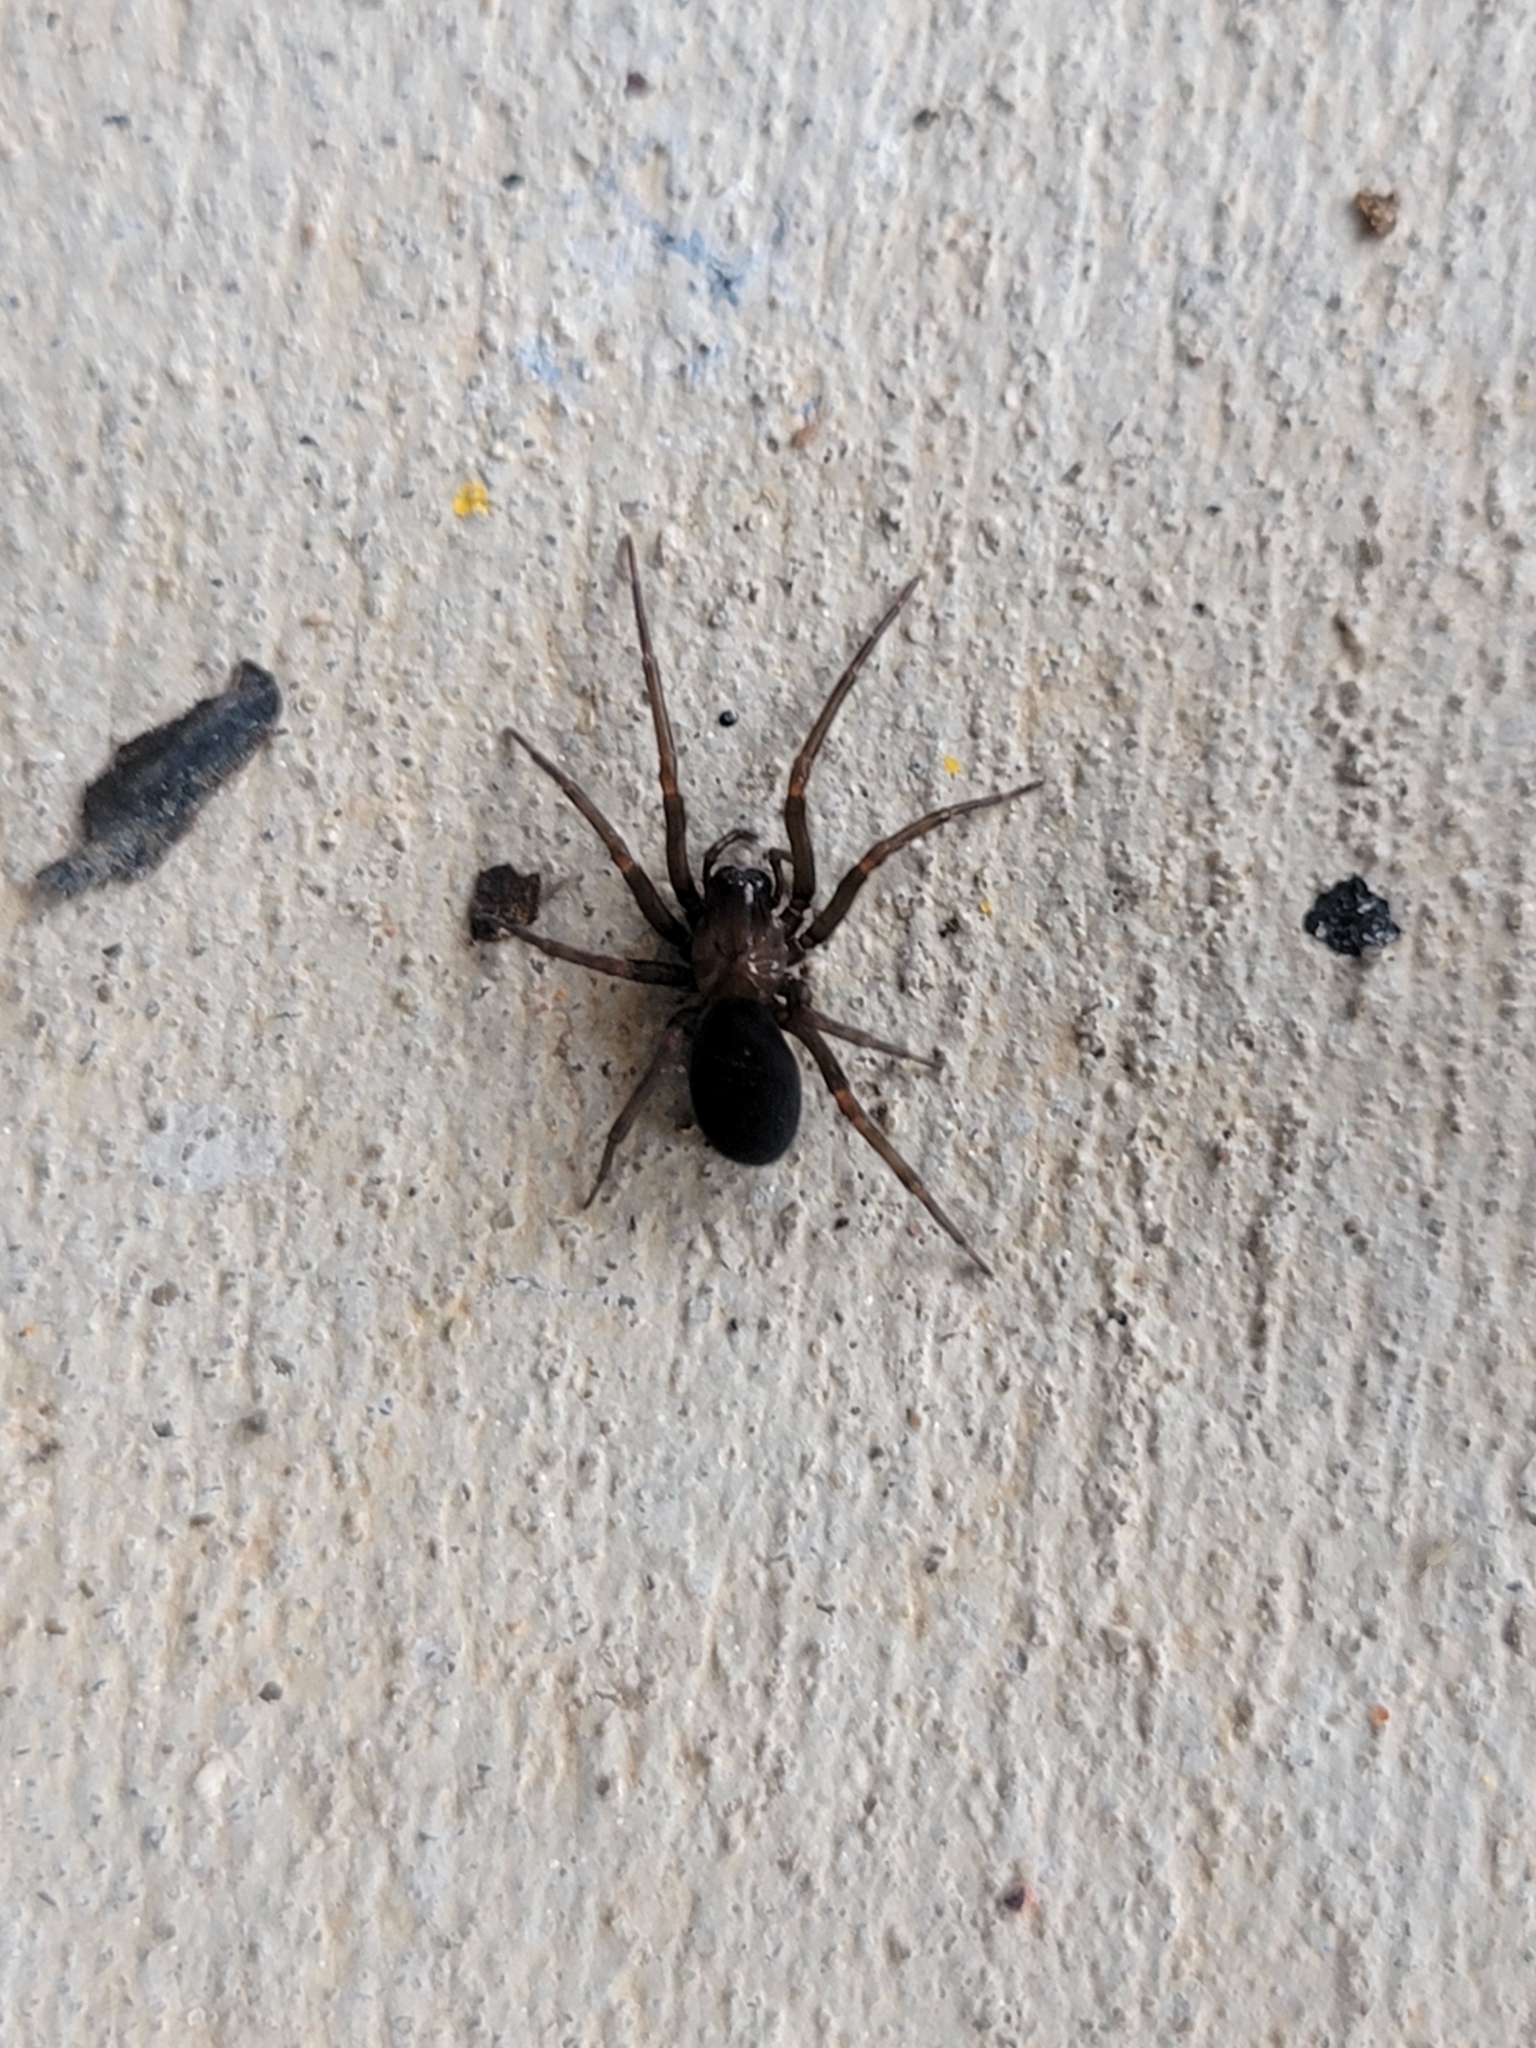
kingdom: Animalia
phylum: Arthropoda
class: Arachnida
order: Araneae
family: Desidae
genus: Metaltella
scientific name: Metaltella simoni
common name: Cribellate spider
